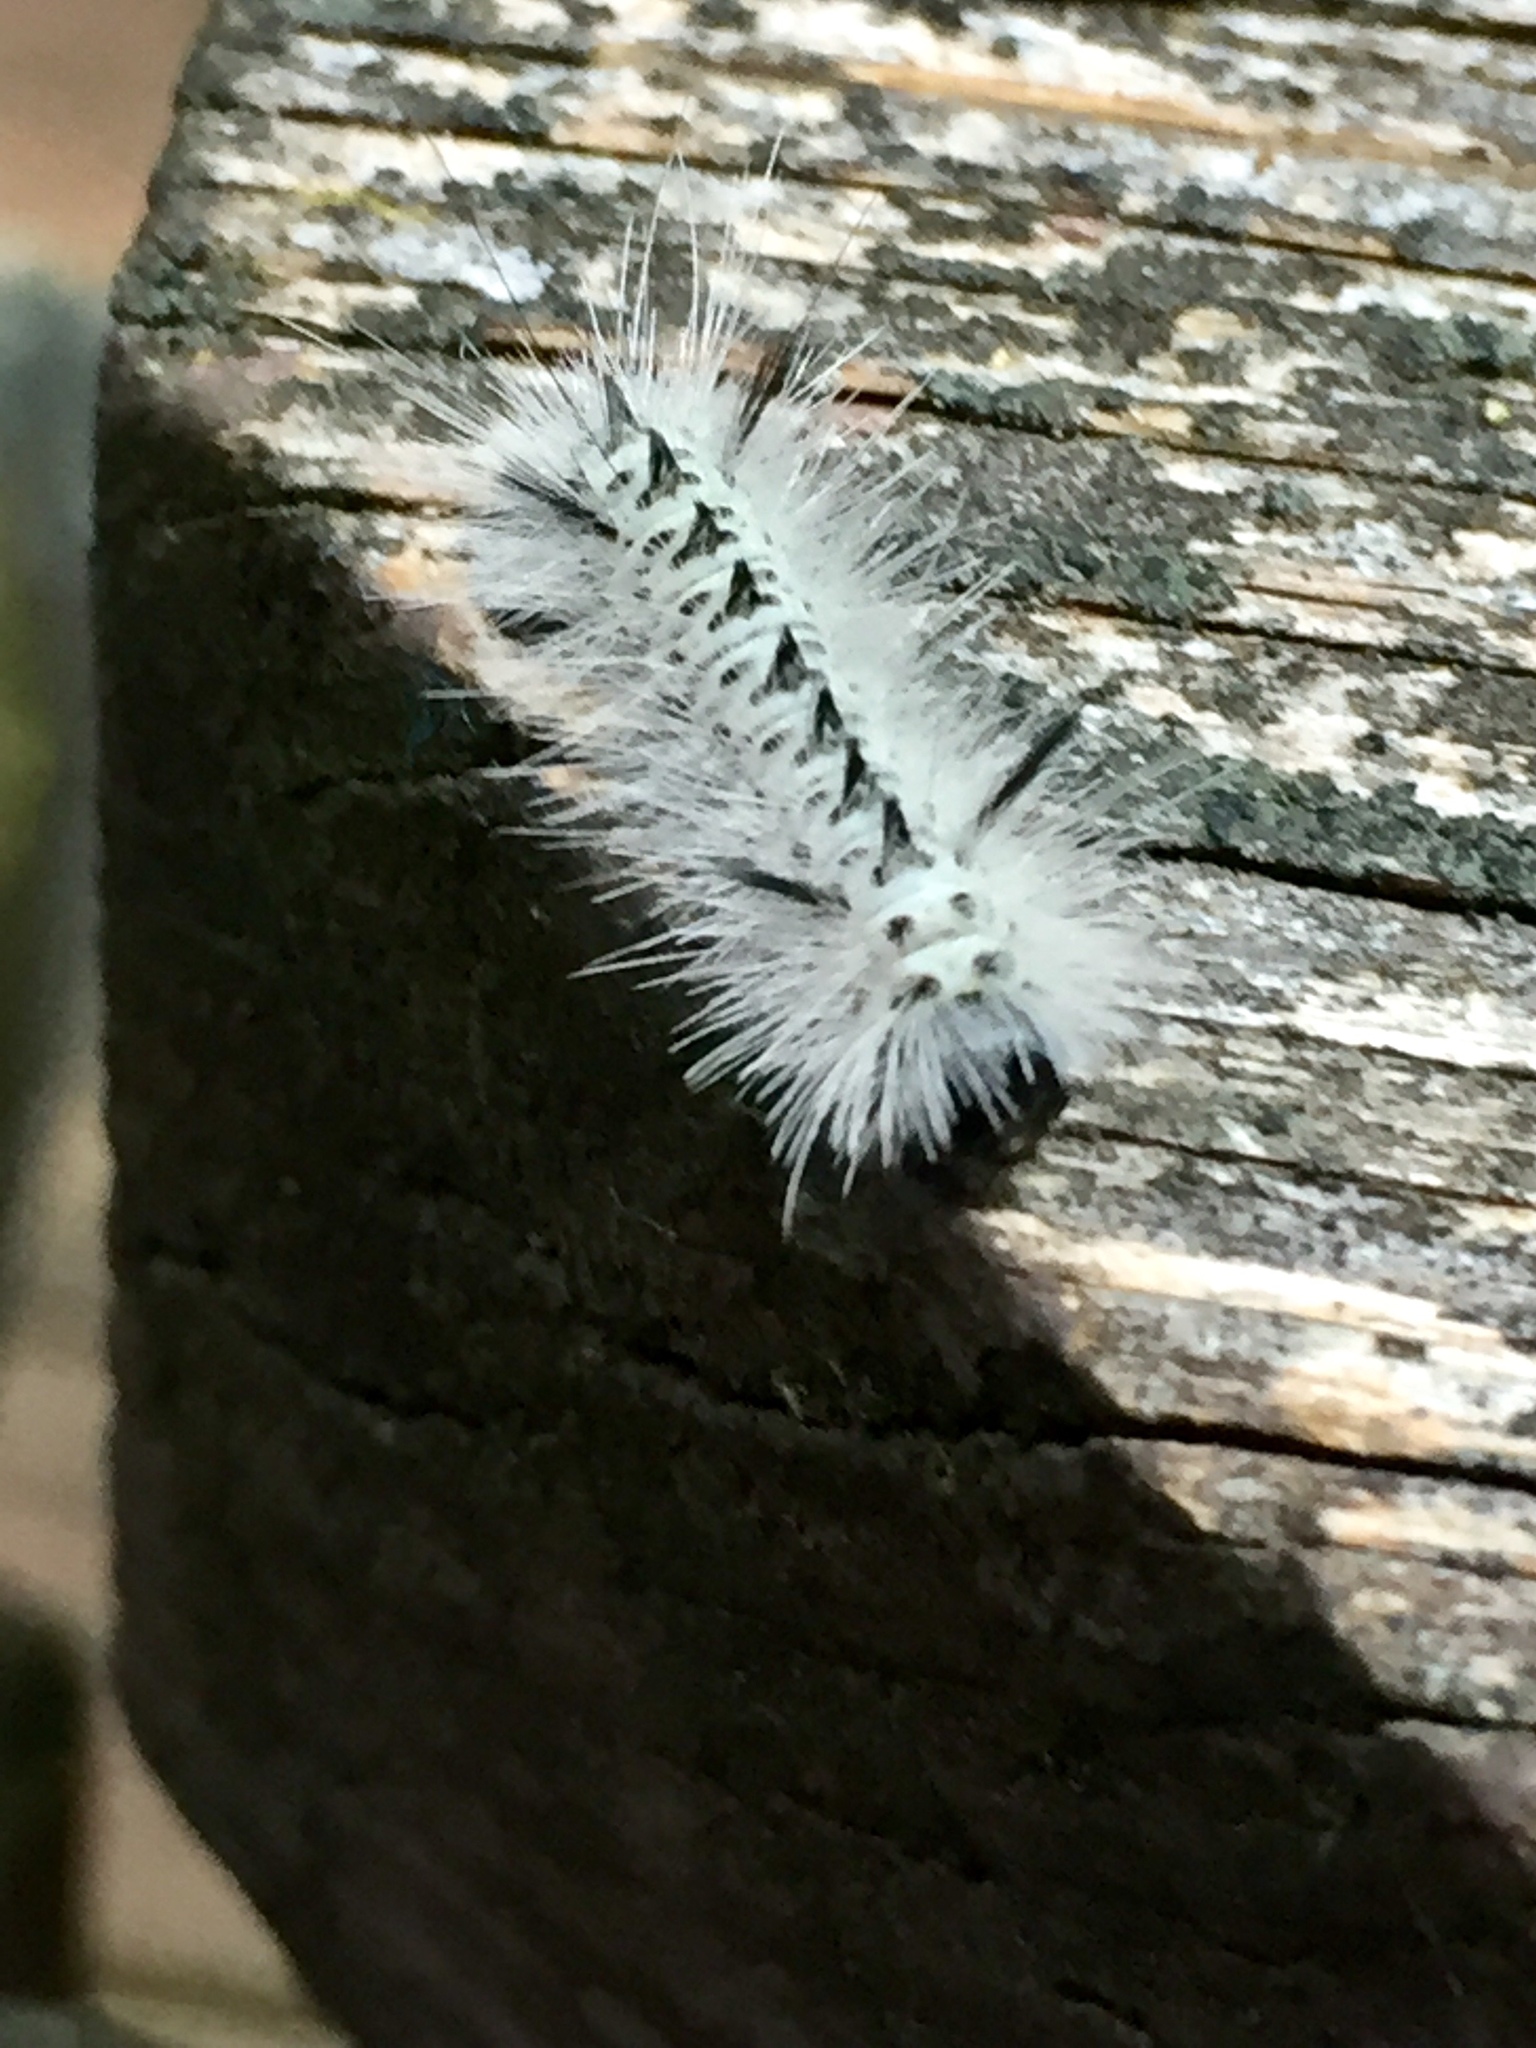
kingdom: Animalia
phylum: Arthropoda
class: Insecta
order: Lepidoptera
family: Erebidae
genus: Lophocampa
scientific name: Lophocampa caryae
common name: Hickory tussock moth
